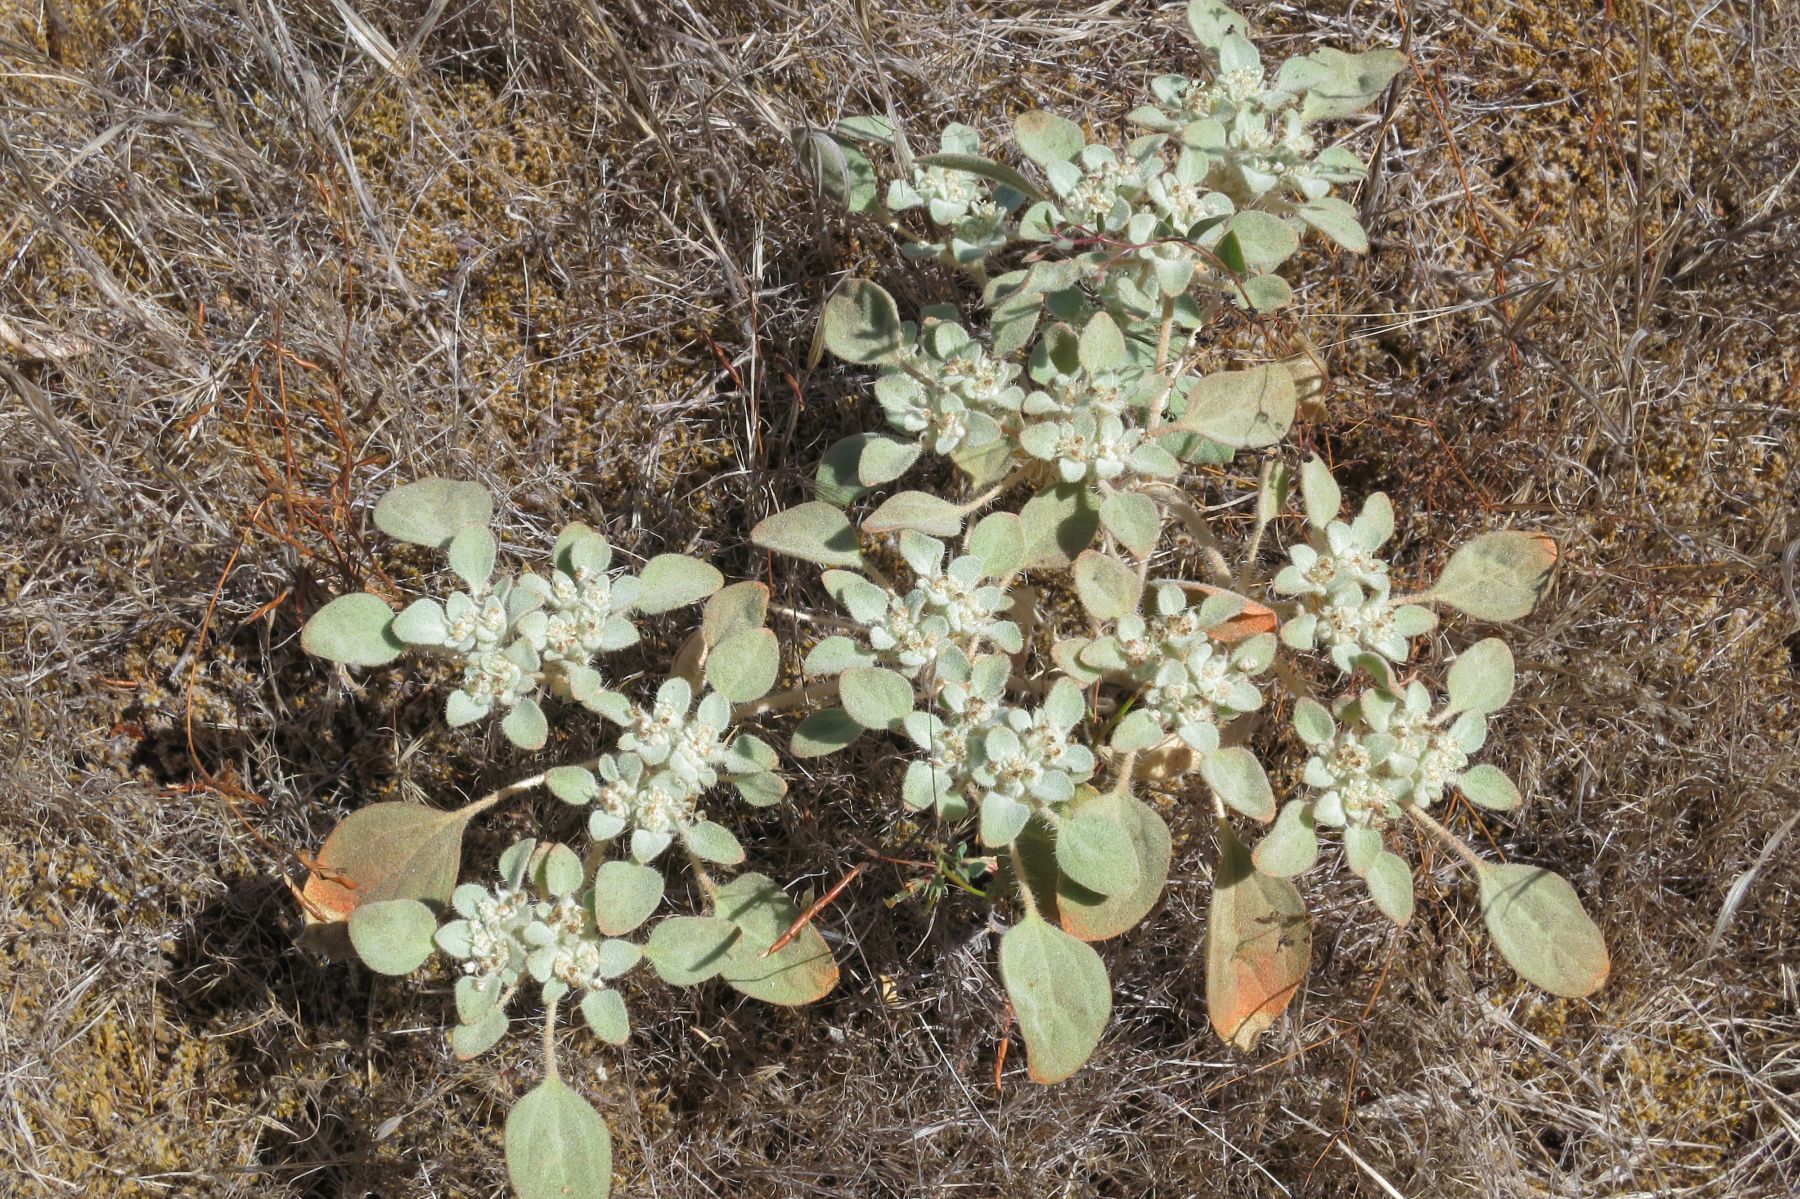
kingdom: Plantae
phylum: Tracheophyta
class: Magnoliopsida
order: Malpighiales
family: Euphorbiaceae
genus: Croton
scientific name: Croton setiger
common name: Dove weed
